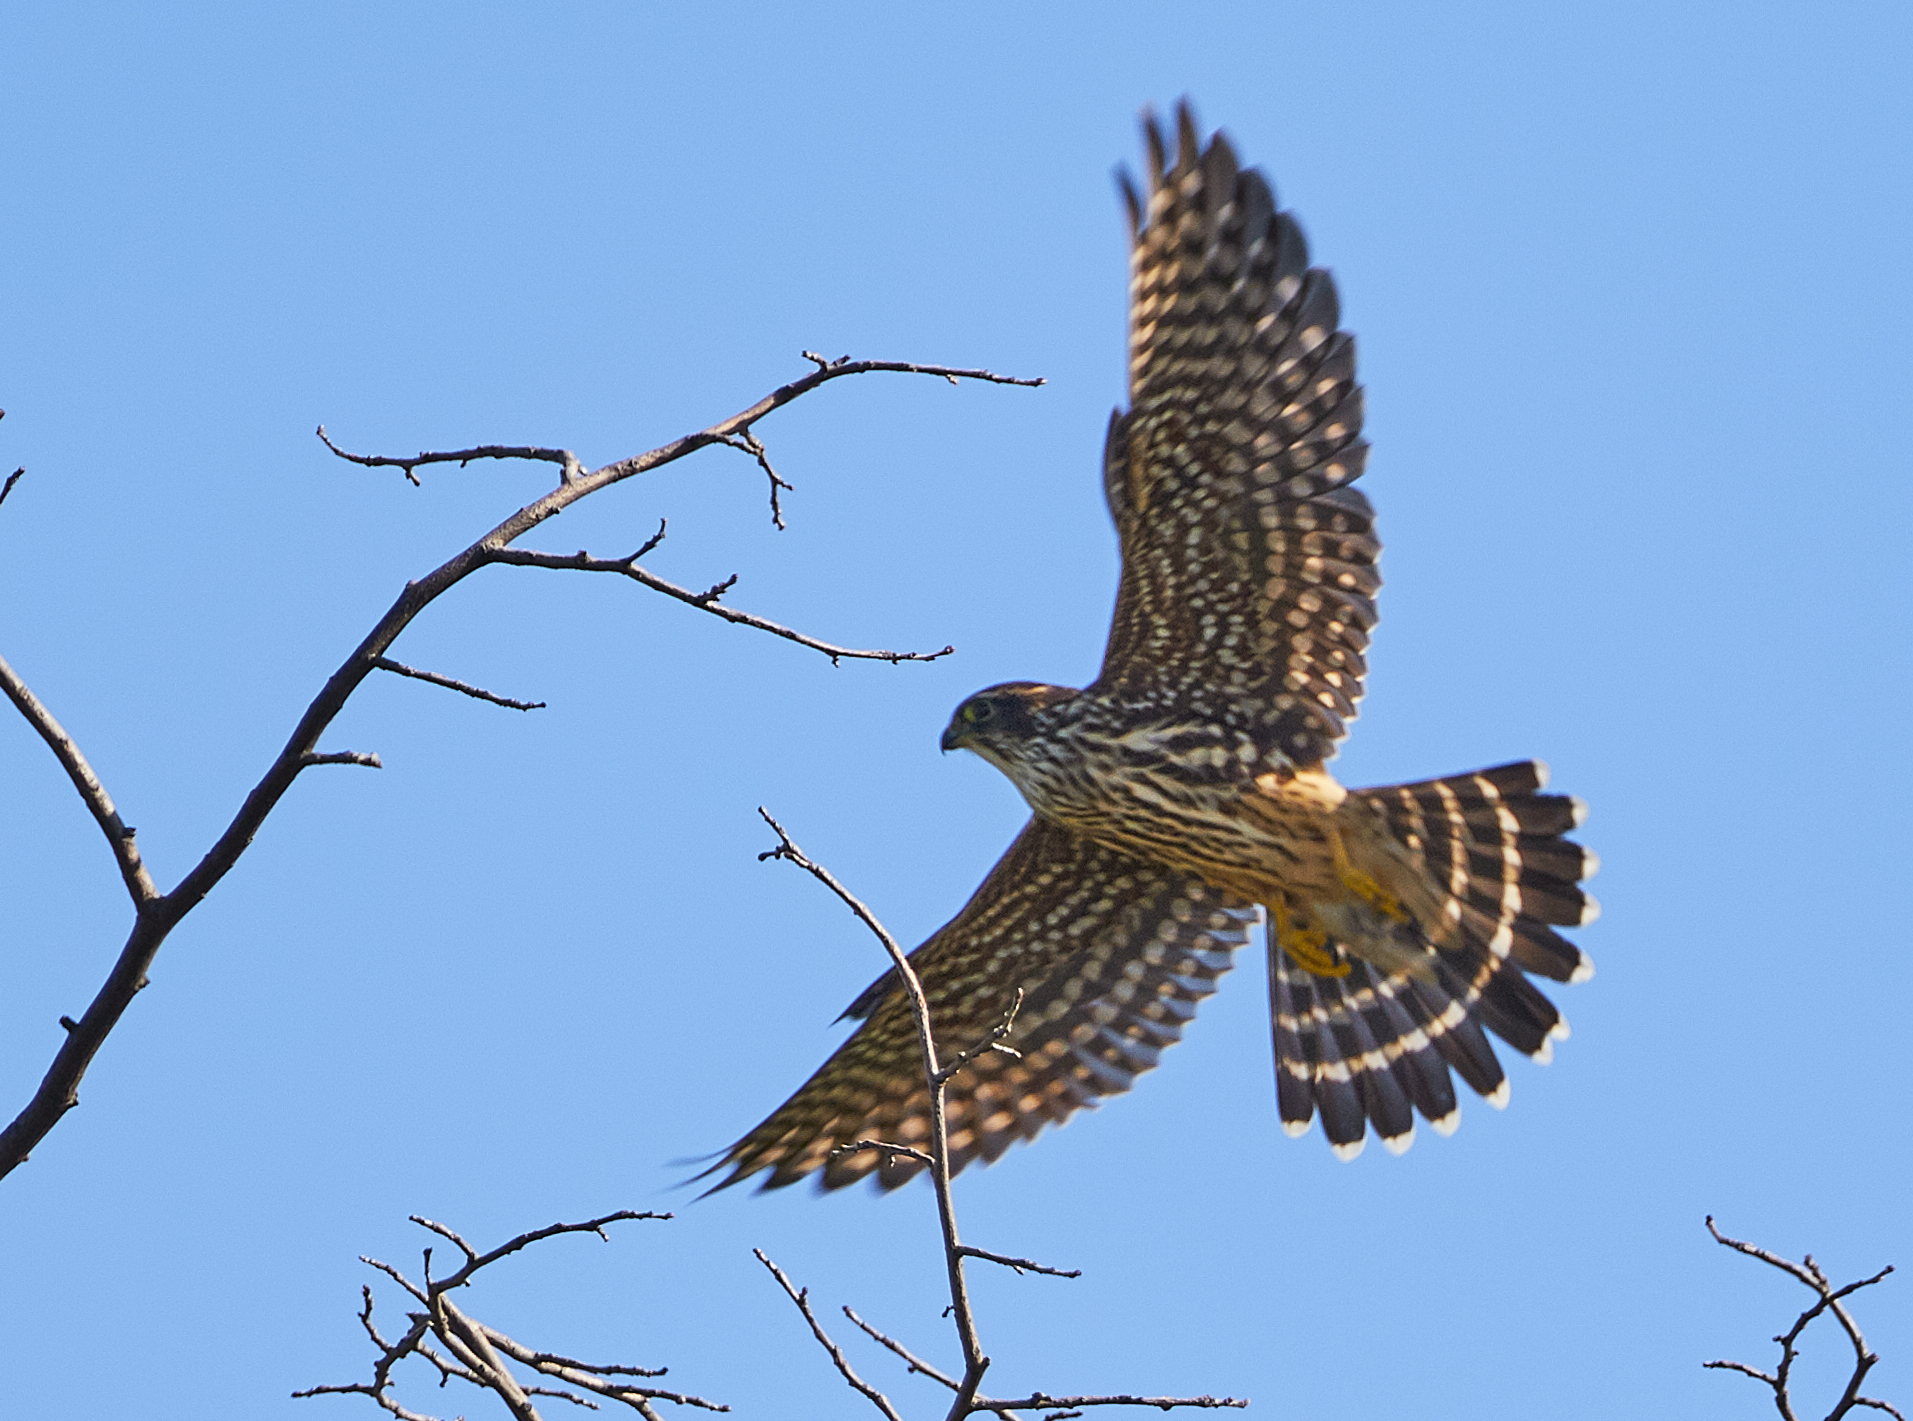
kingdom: Animalia
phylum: Chordata
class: Aves
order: Falconiformes
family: Falconidae
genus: Falco
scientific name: Falco columbarius
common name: Merlin
